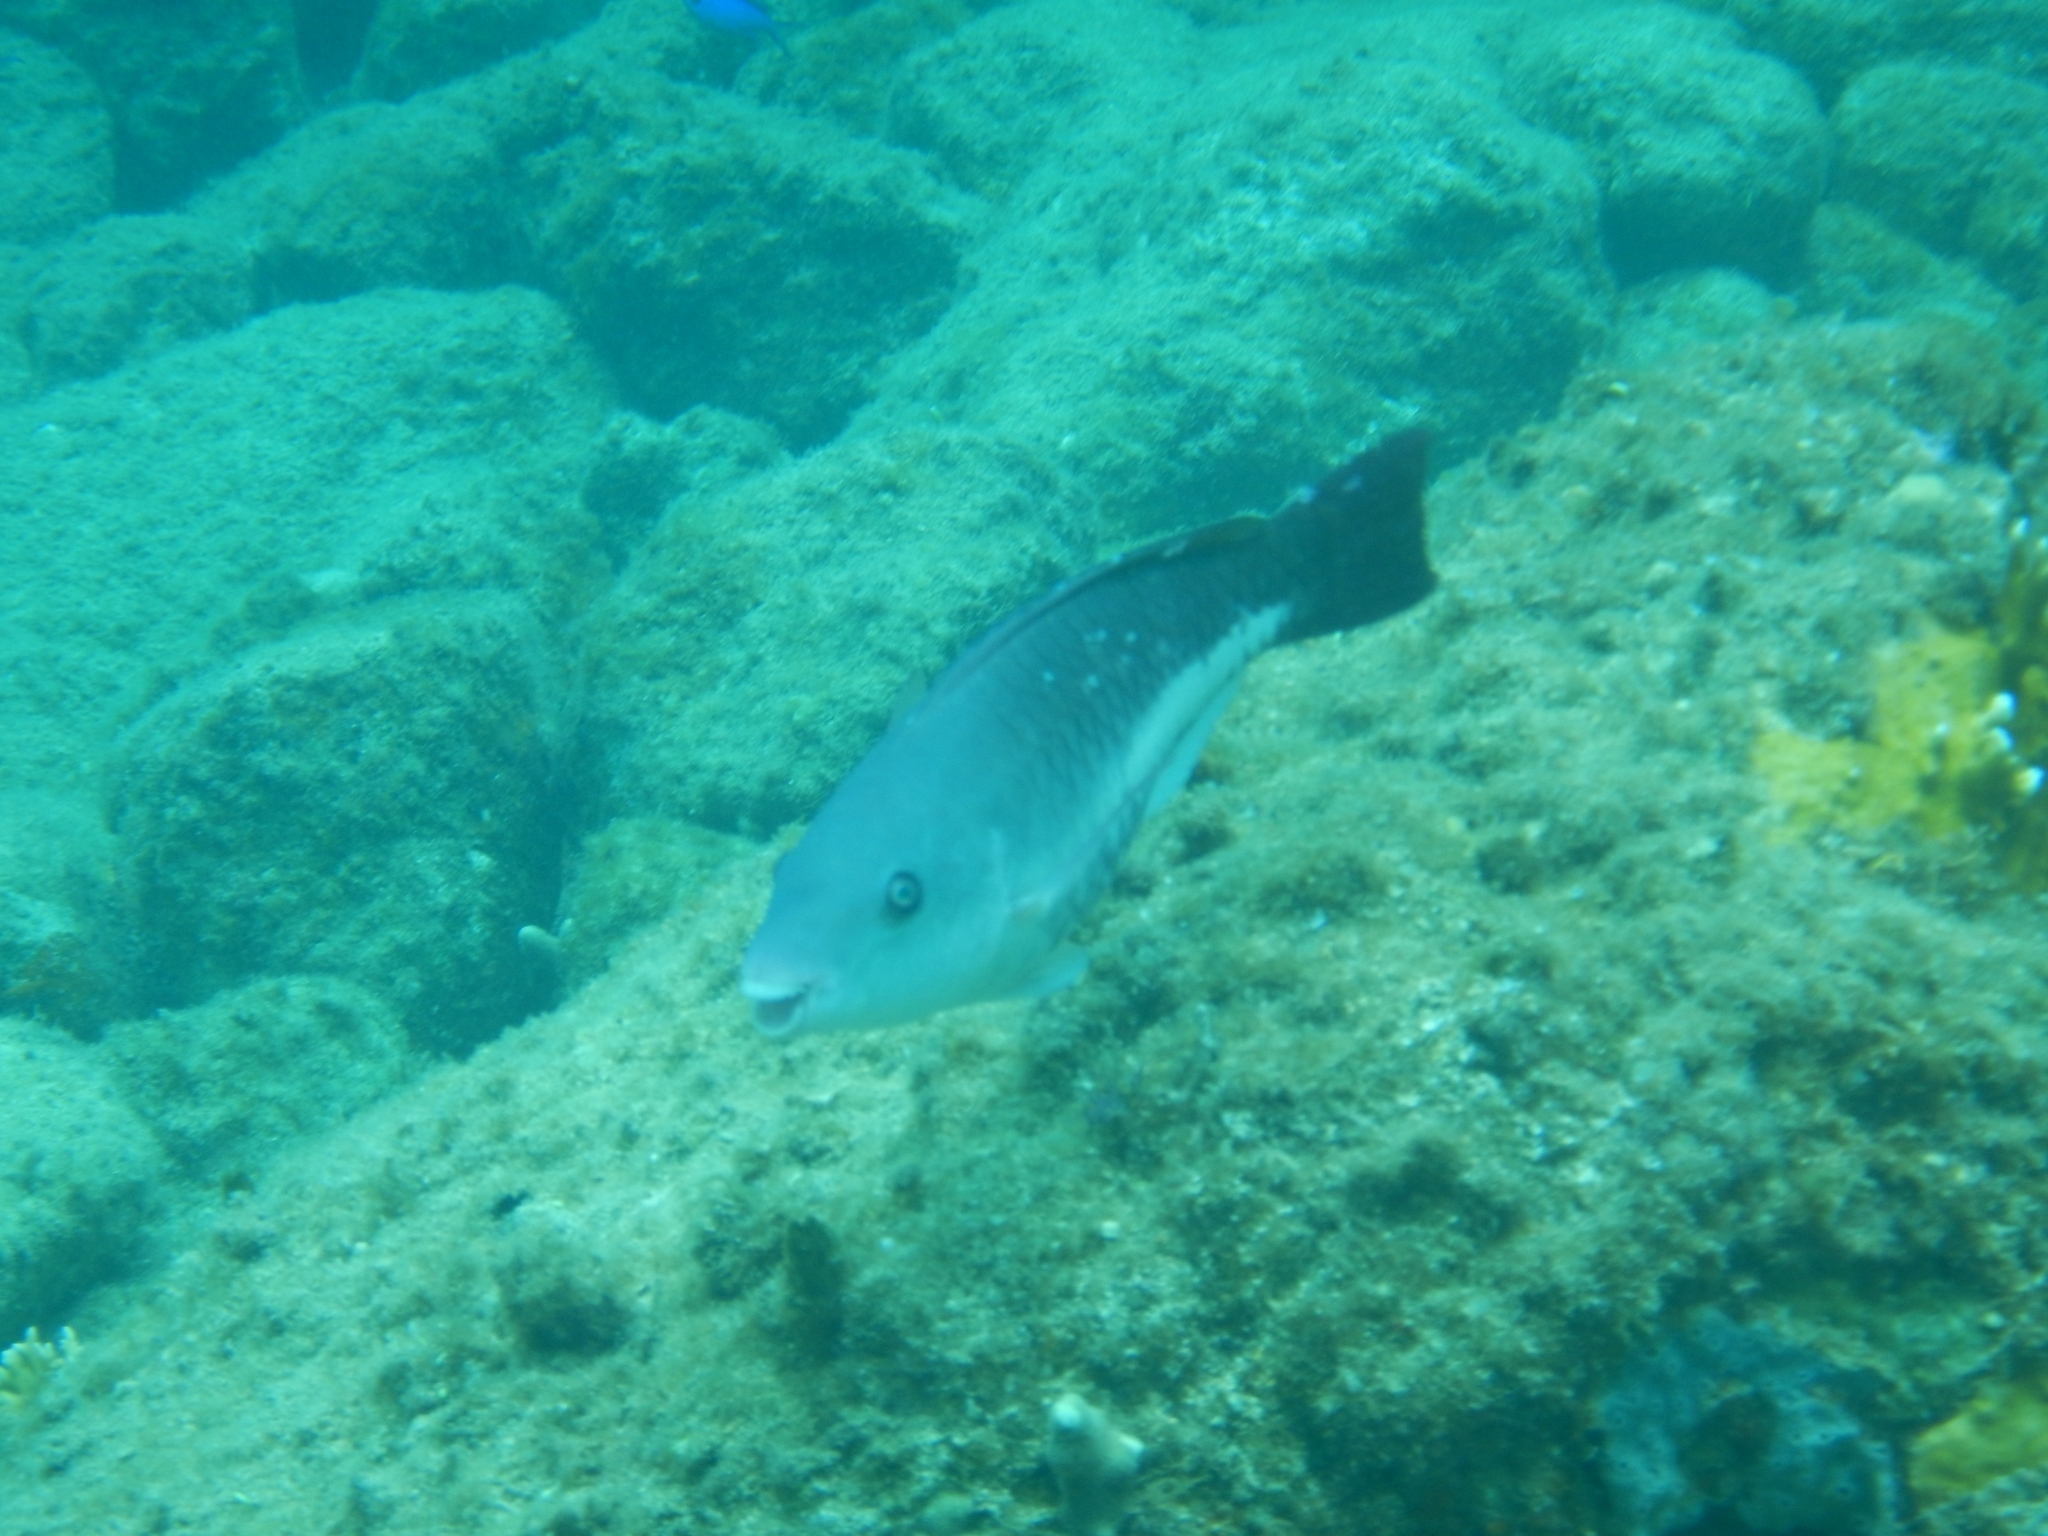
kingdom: Animalia
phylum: Chordata
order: Perciformes
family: Scaridae
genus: Scarus
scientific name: Scarus vetula
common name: Queen parrotfish
